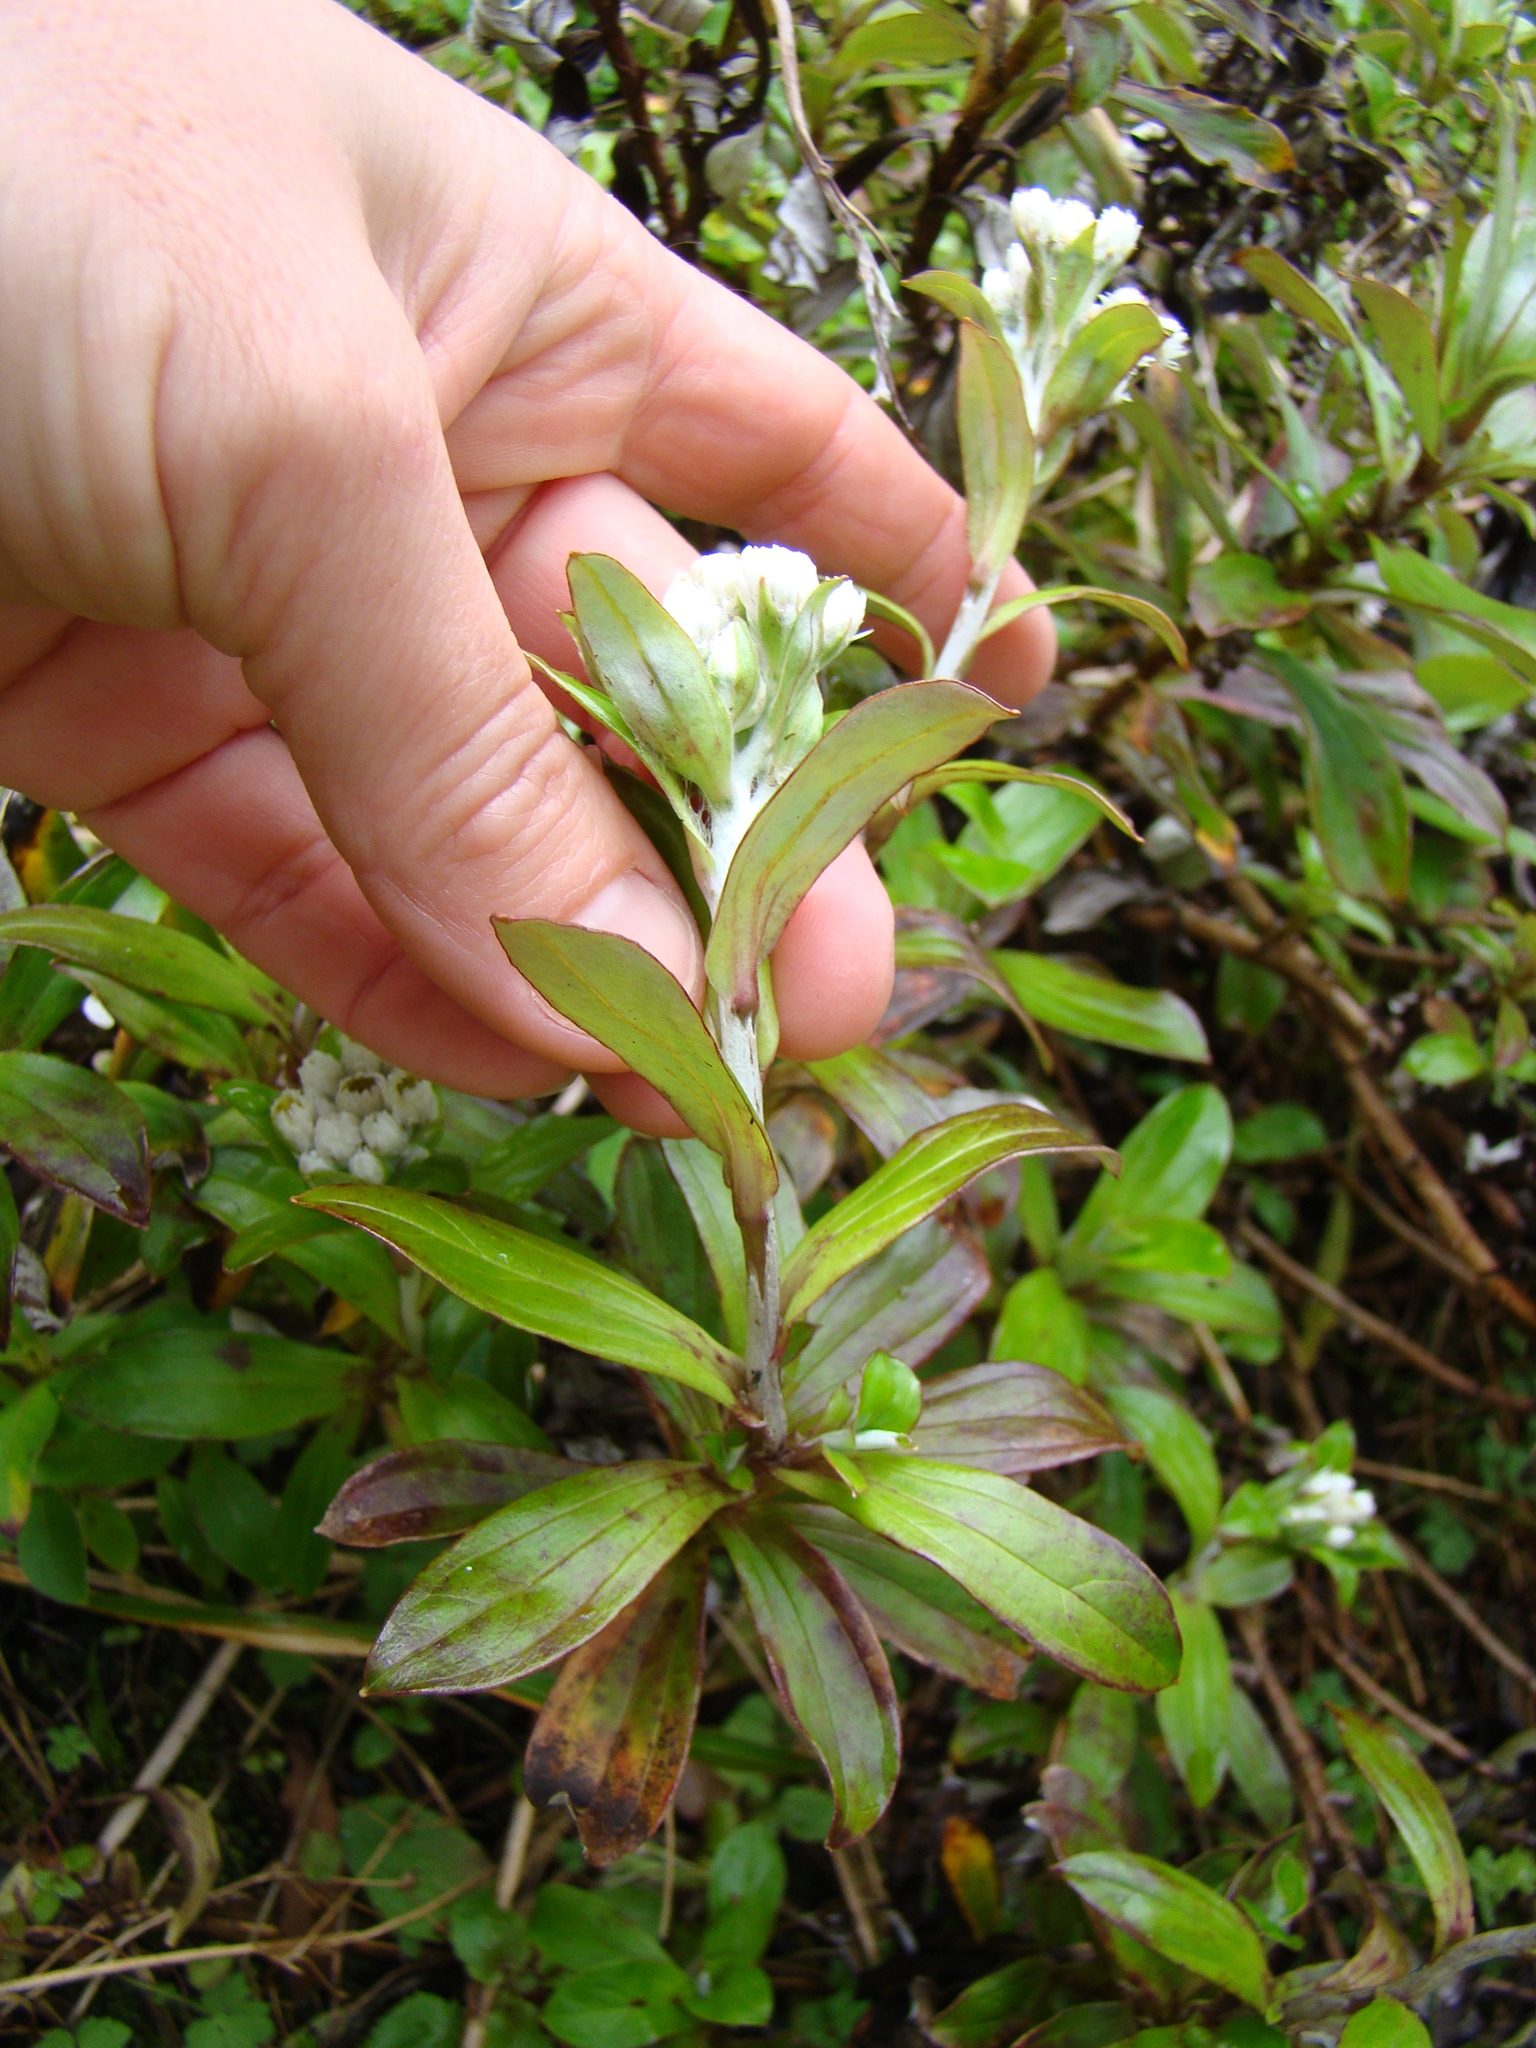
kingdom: Plantae
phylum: Tracheophyta
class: Magnoliopsida
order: Asterales
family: Asteraceae
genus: Anaphalioides
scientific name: Anaphalioides trinervis
